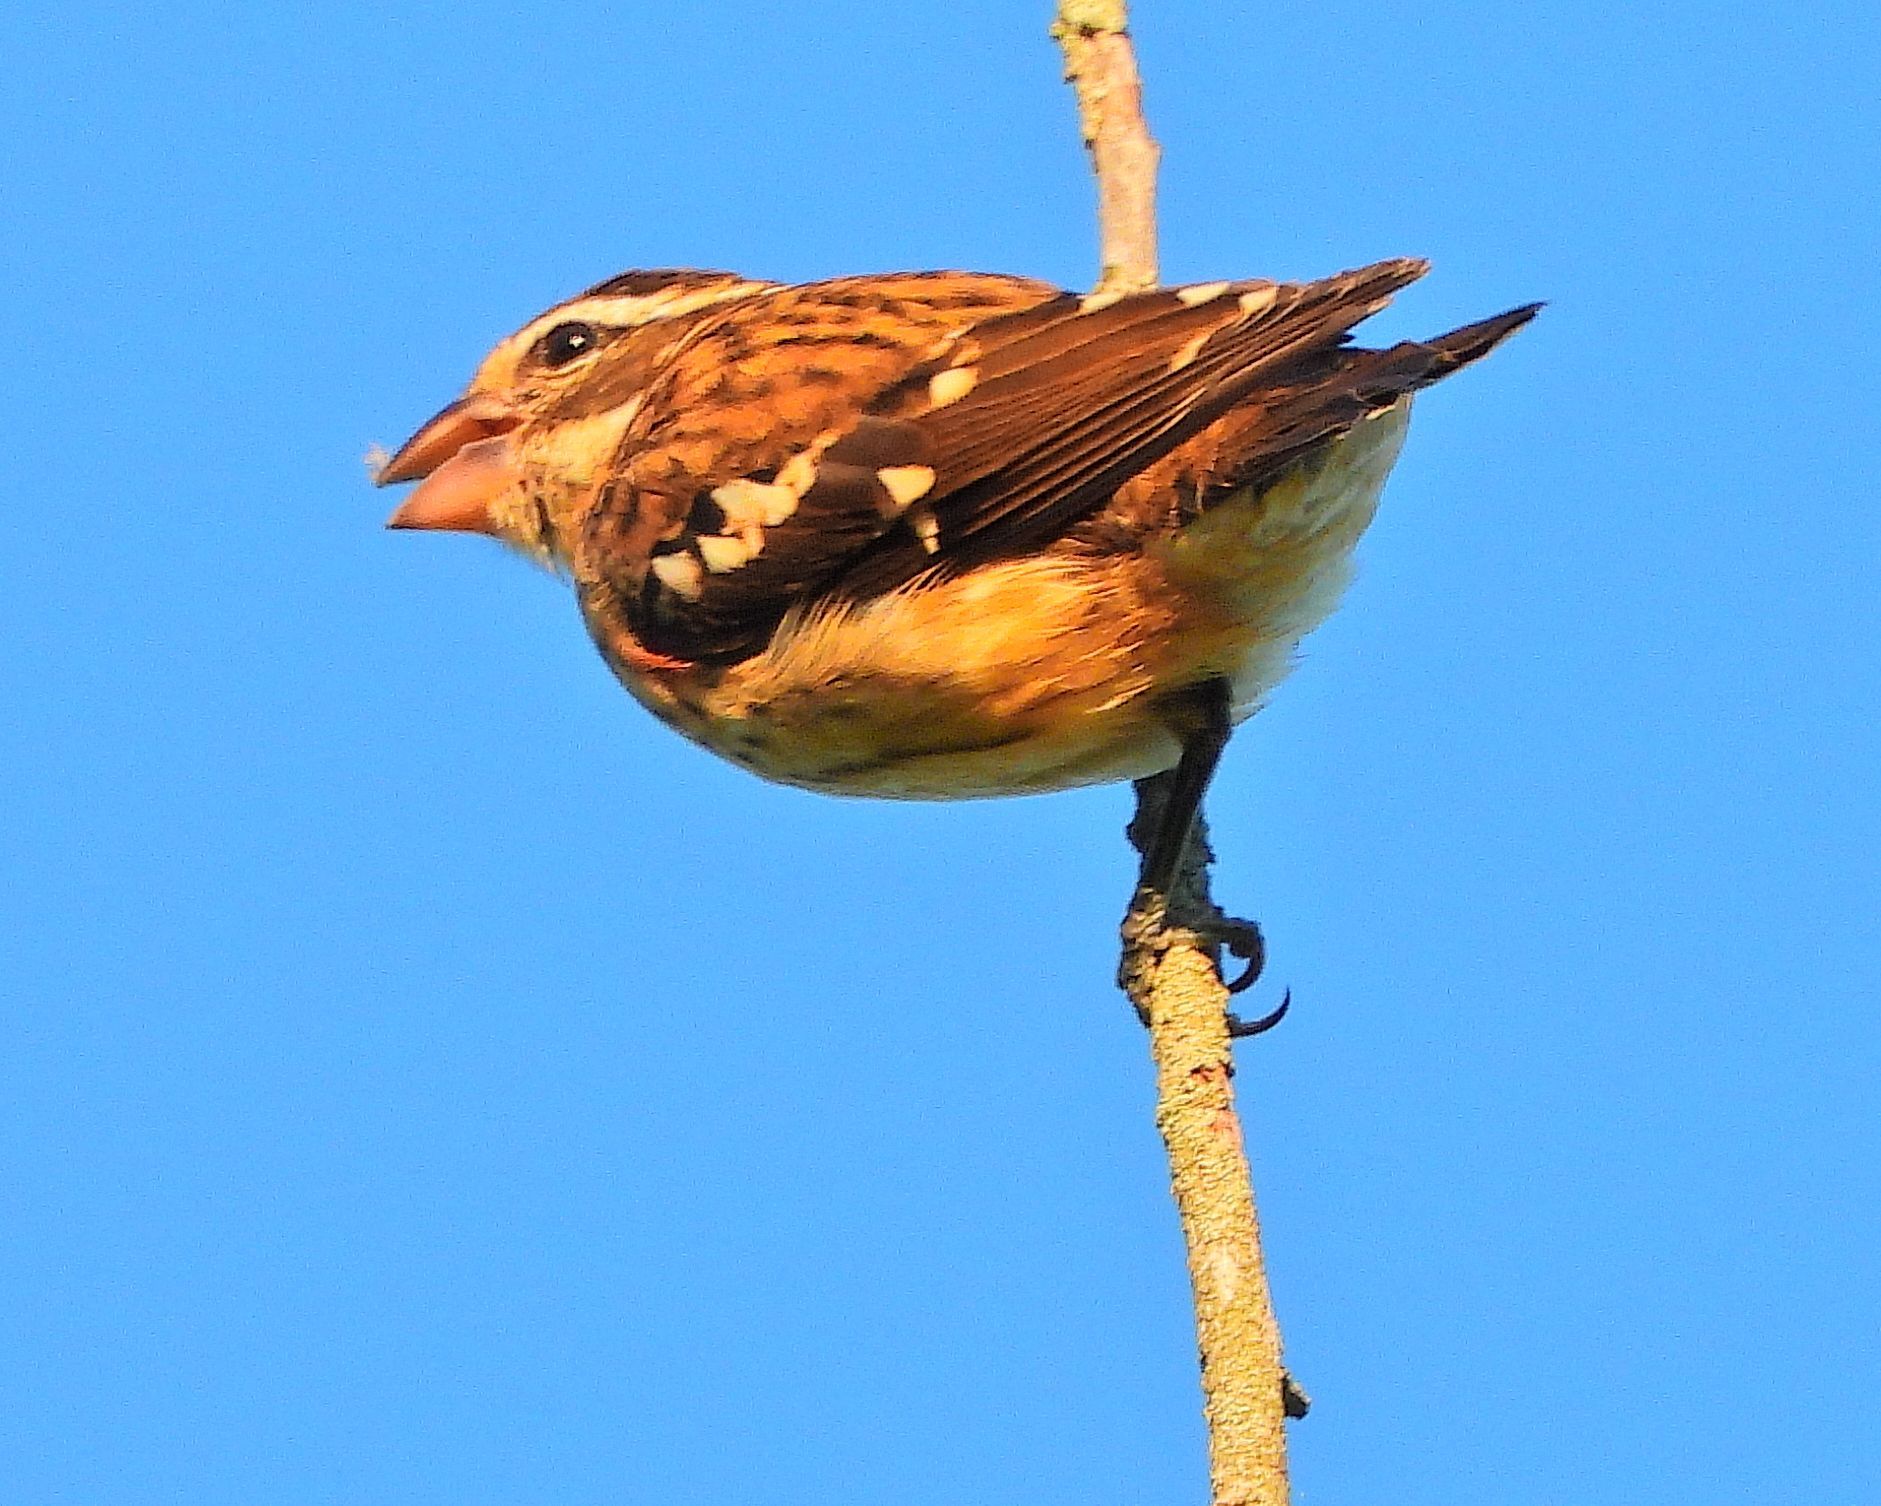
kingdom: Animalia
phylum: Chordata
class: Aves
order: Passeriformes
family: Cardinalidae
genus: Pheucticus
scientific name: Pheucticus ludovicianus
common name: Rose-breasted grosbeak
